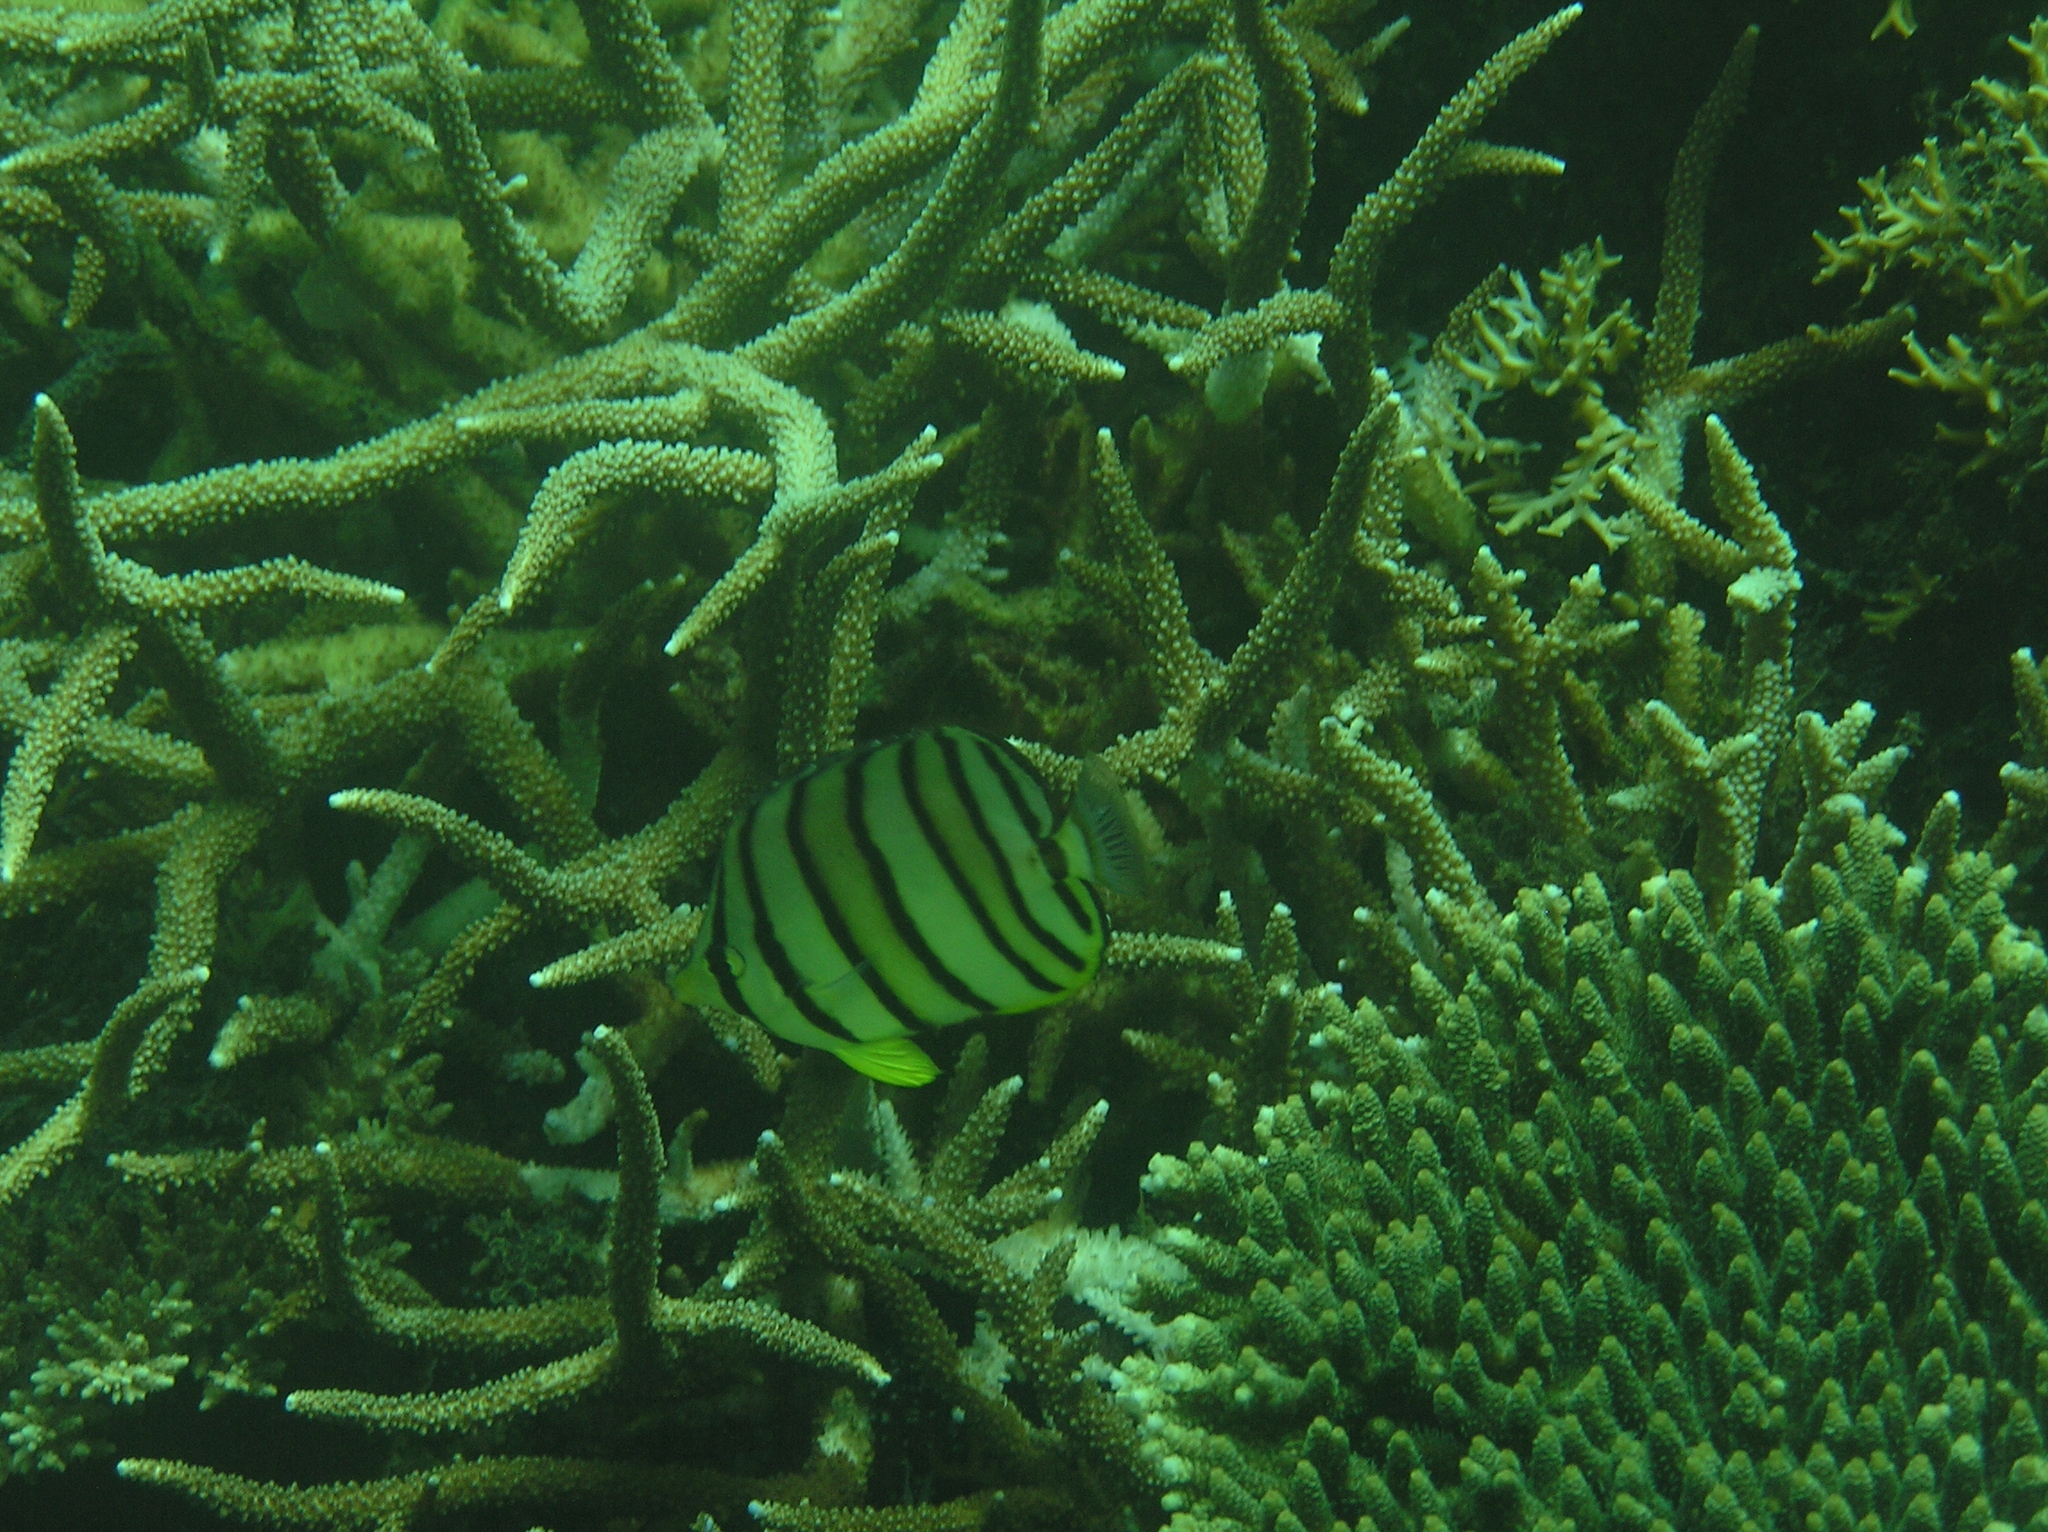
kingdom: Animalia
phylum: Chordata
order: Perciformes
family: Chaetodontidae
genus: Chaetodon
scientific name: Chaetodon octofasciatus
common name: Eightband butterflyfish
